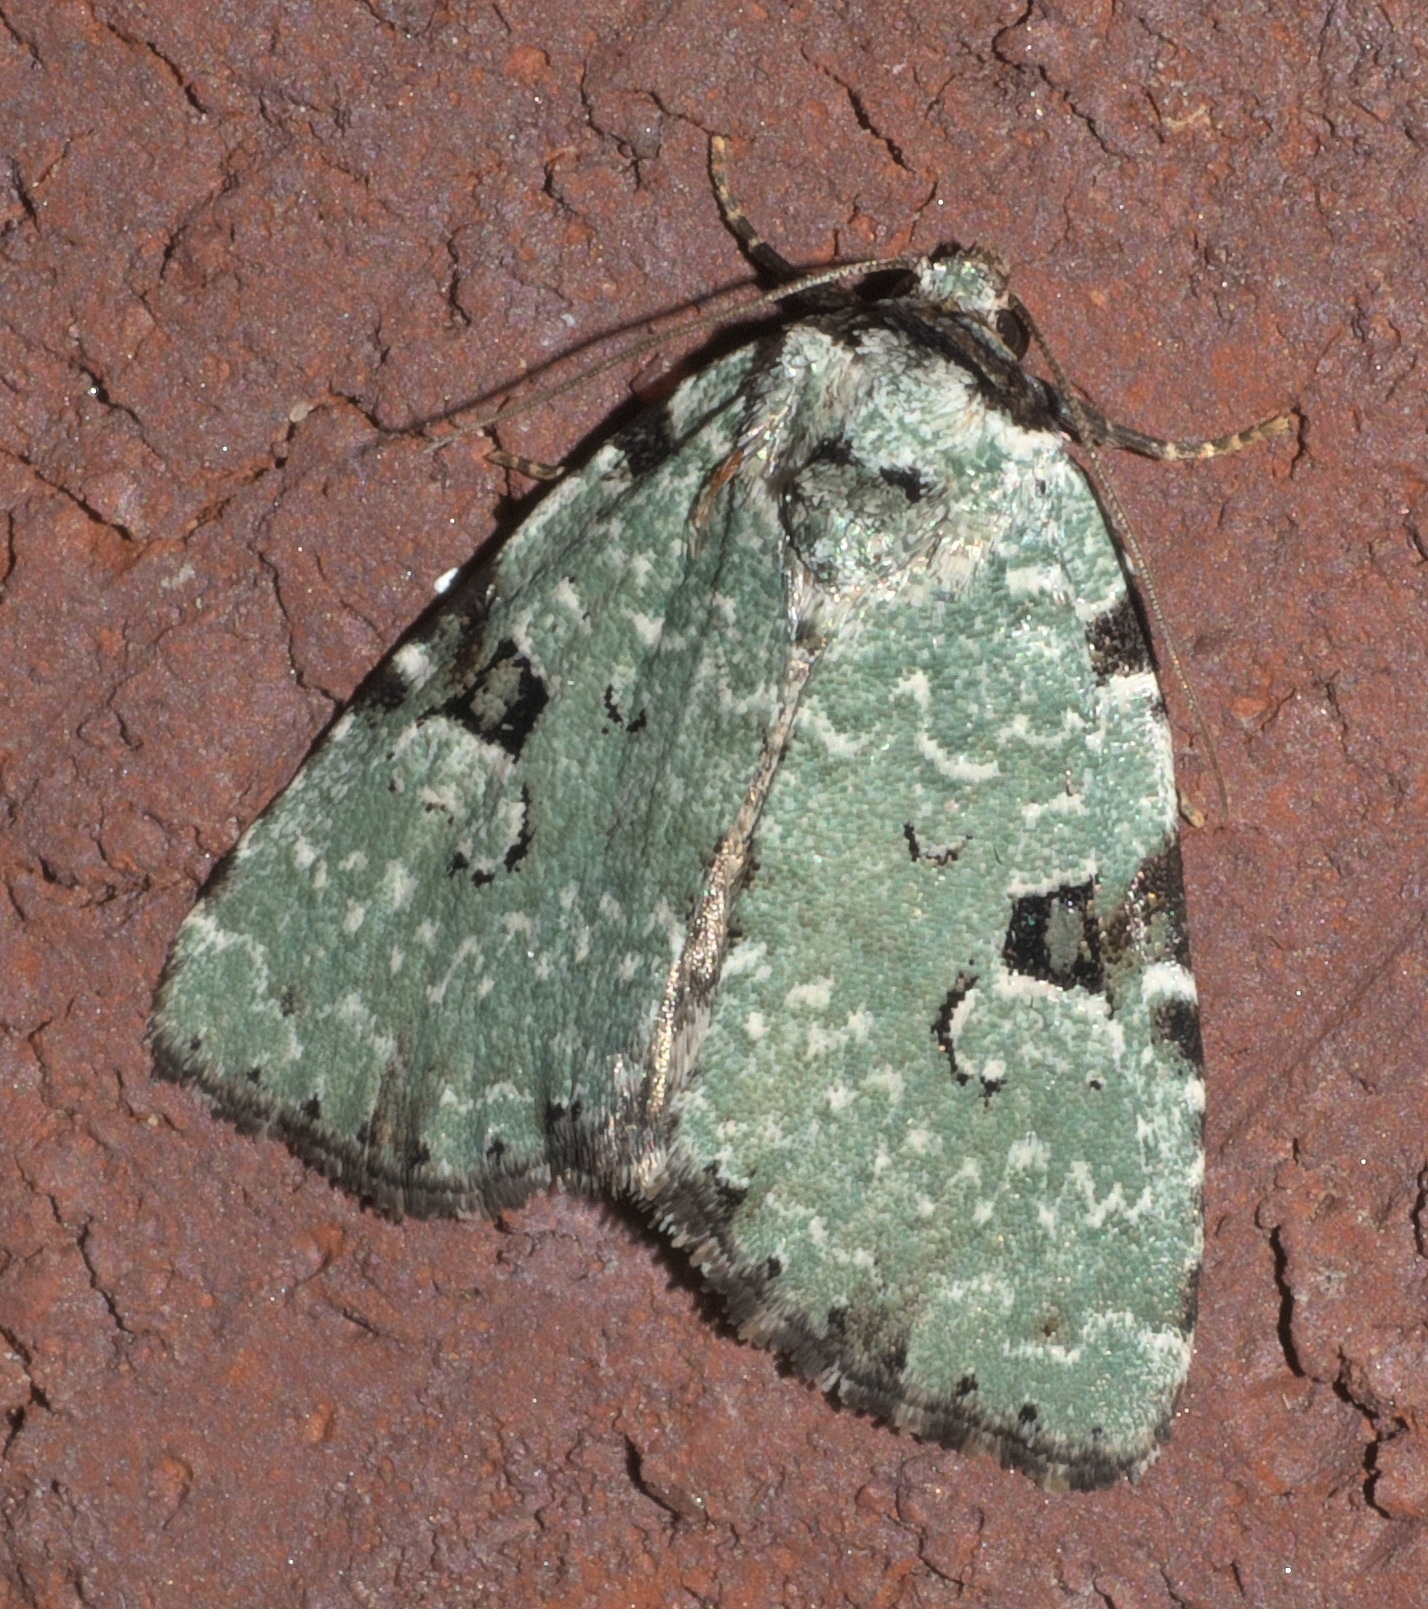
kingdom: Animalia
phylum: Arthropoda
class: Insecta
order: Lepidoptera
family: Noctuidae
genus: Leuconycta
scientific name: Leuconycta diphteroides
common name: Green leuconycta moth
